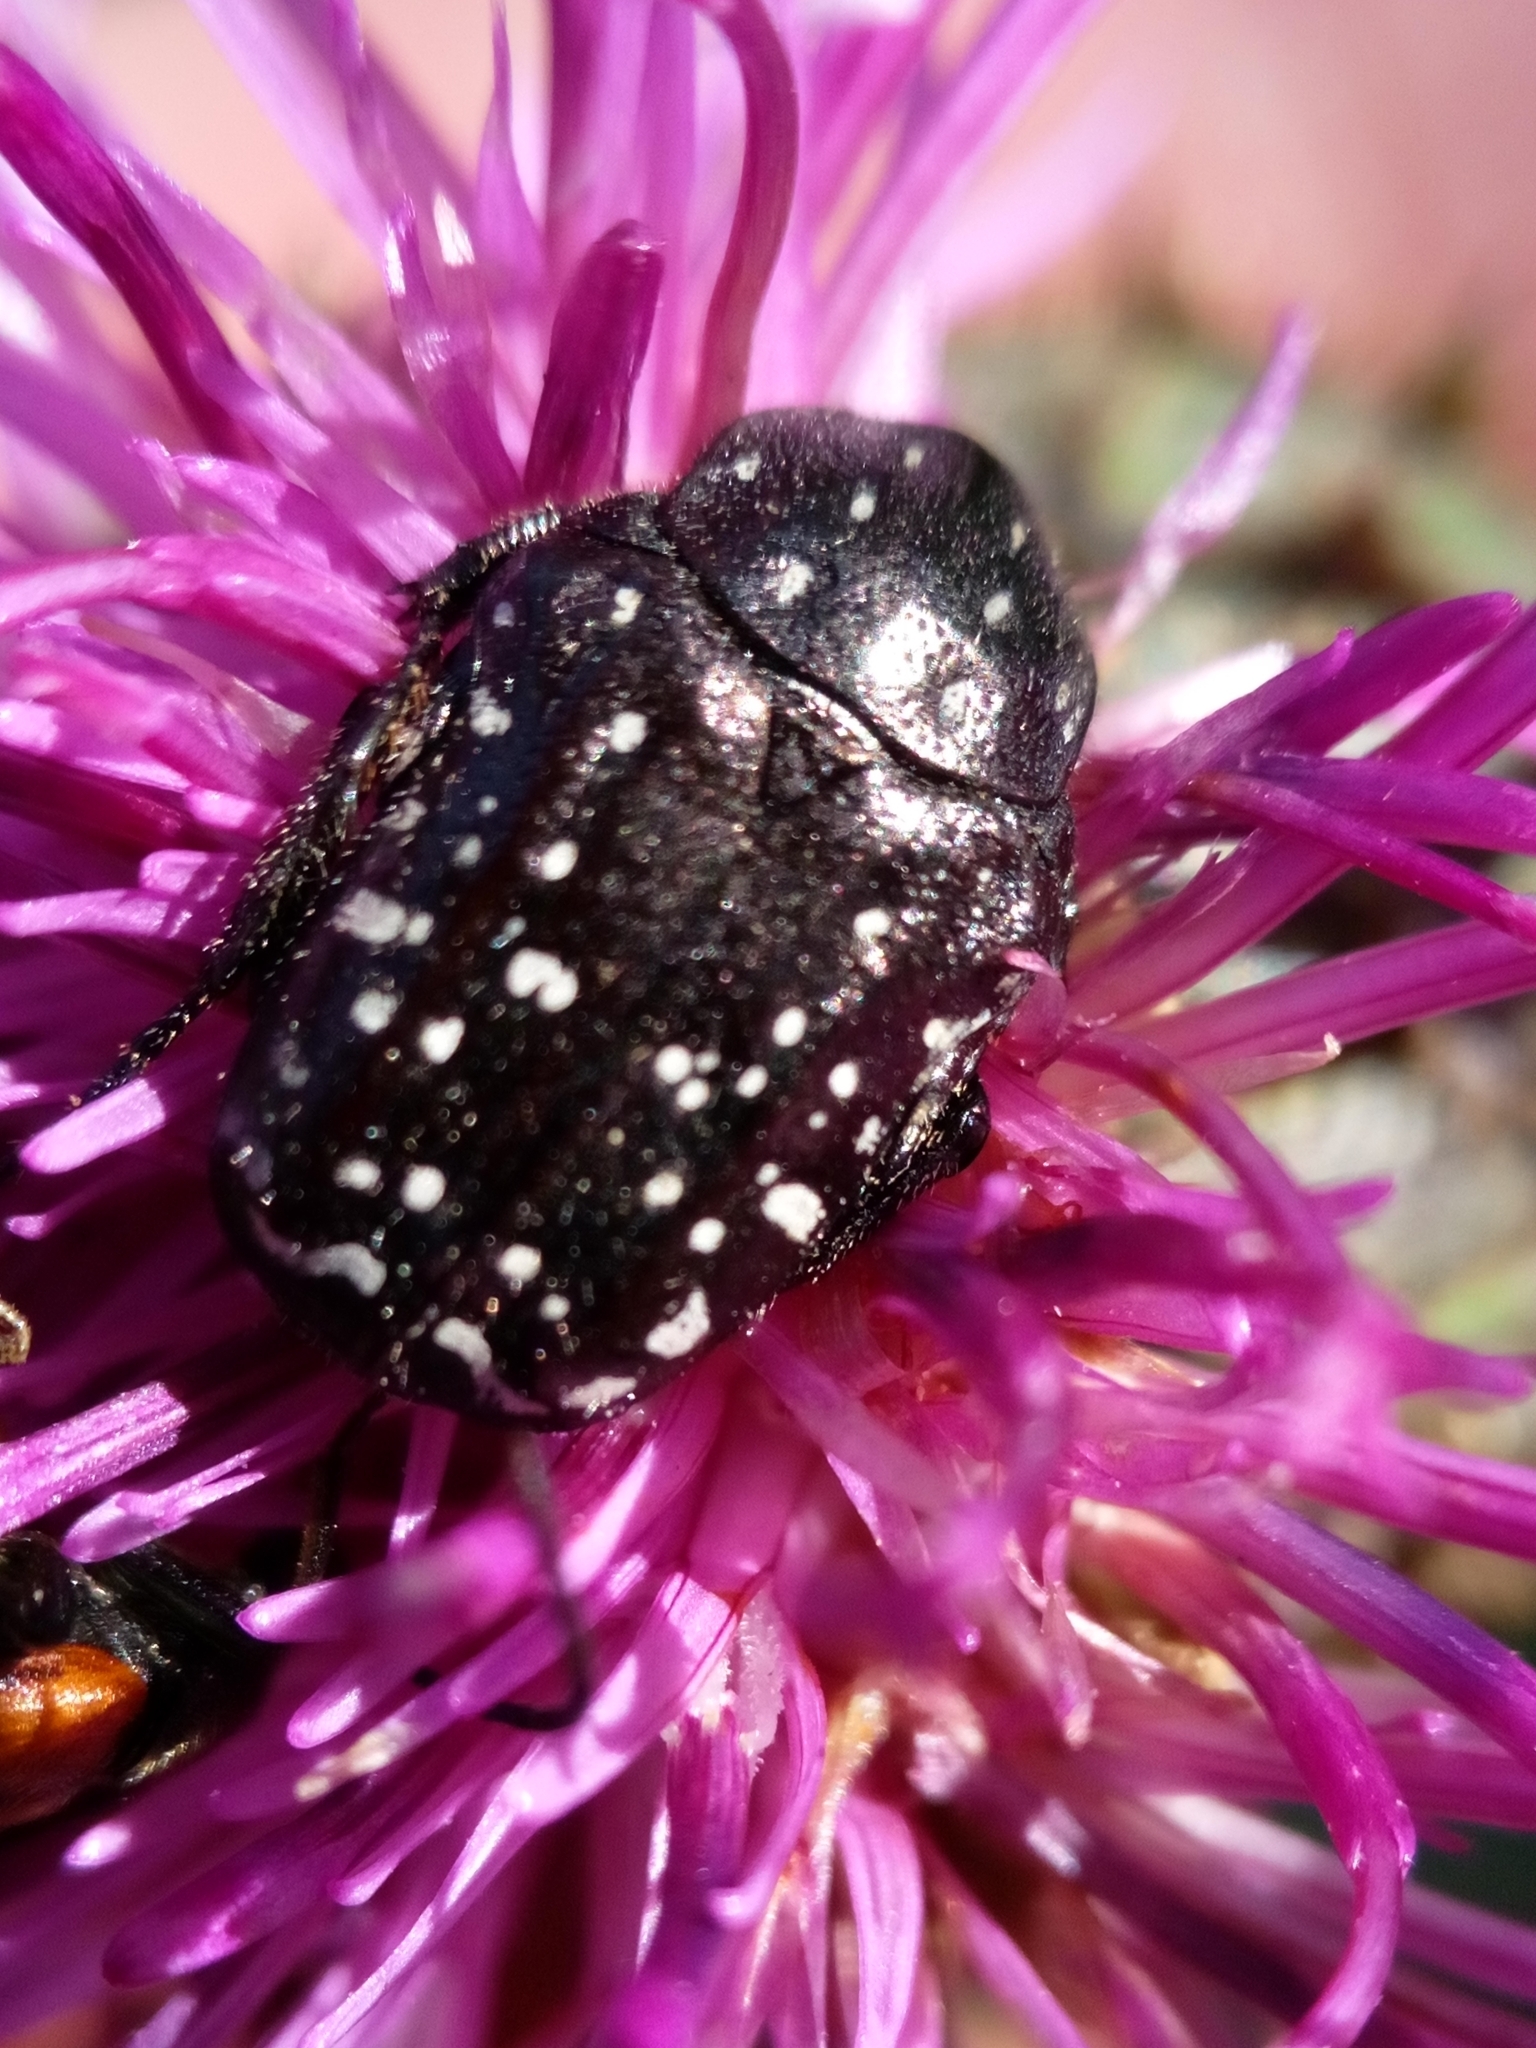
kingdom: Animalia
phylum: Arthropoda
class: Insecta
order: Coleoptera
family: Scarabaeidae
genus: Oxythyrea
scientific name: Oxythyrea funesta
